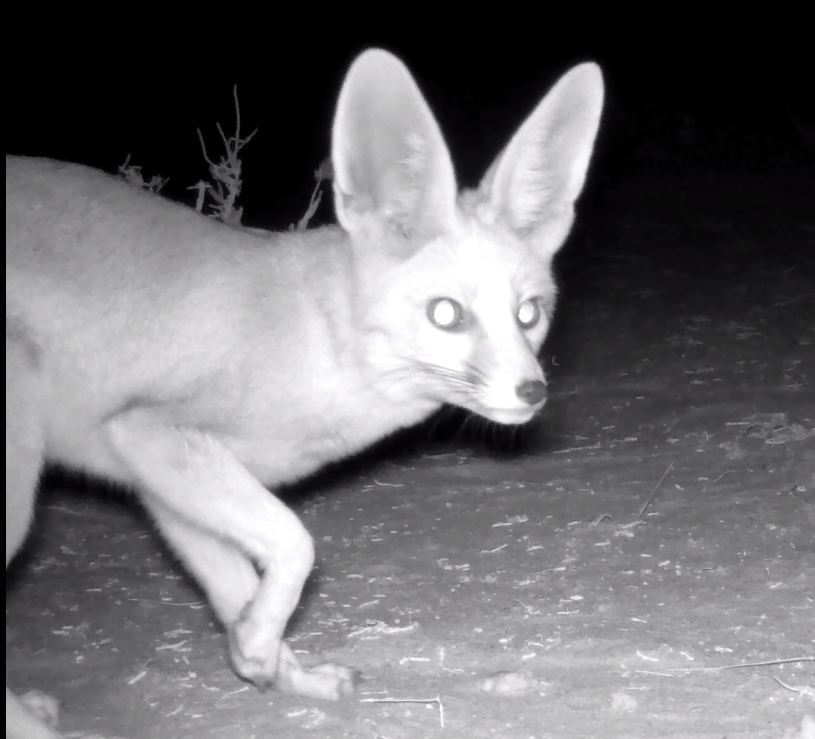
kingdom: Animalia
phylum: Chordata
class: Mammalia
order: Carnivora
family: Canidae
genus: Vulpes
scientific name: Vulpes rueppellii
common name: Sand fox
